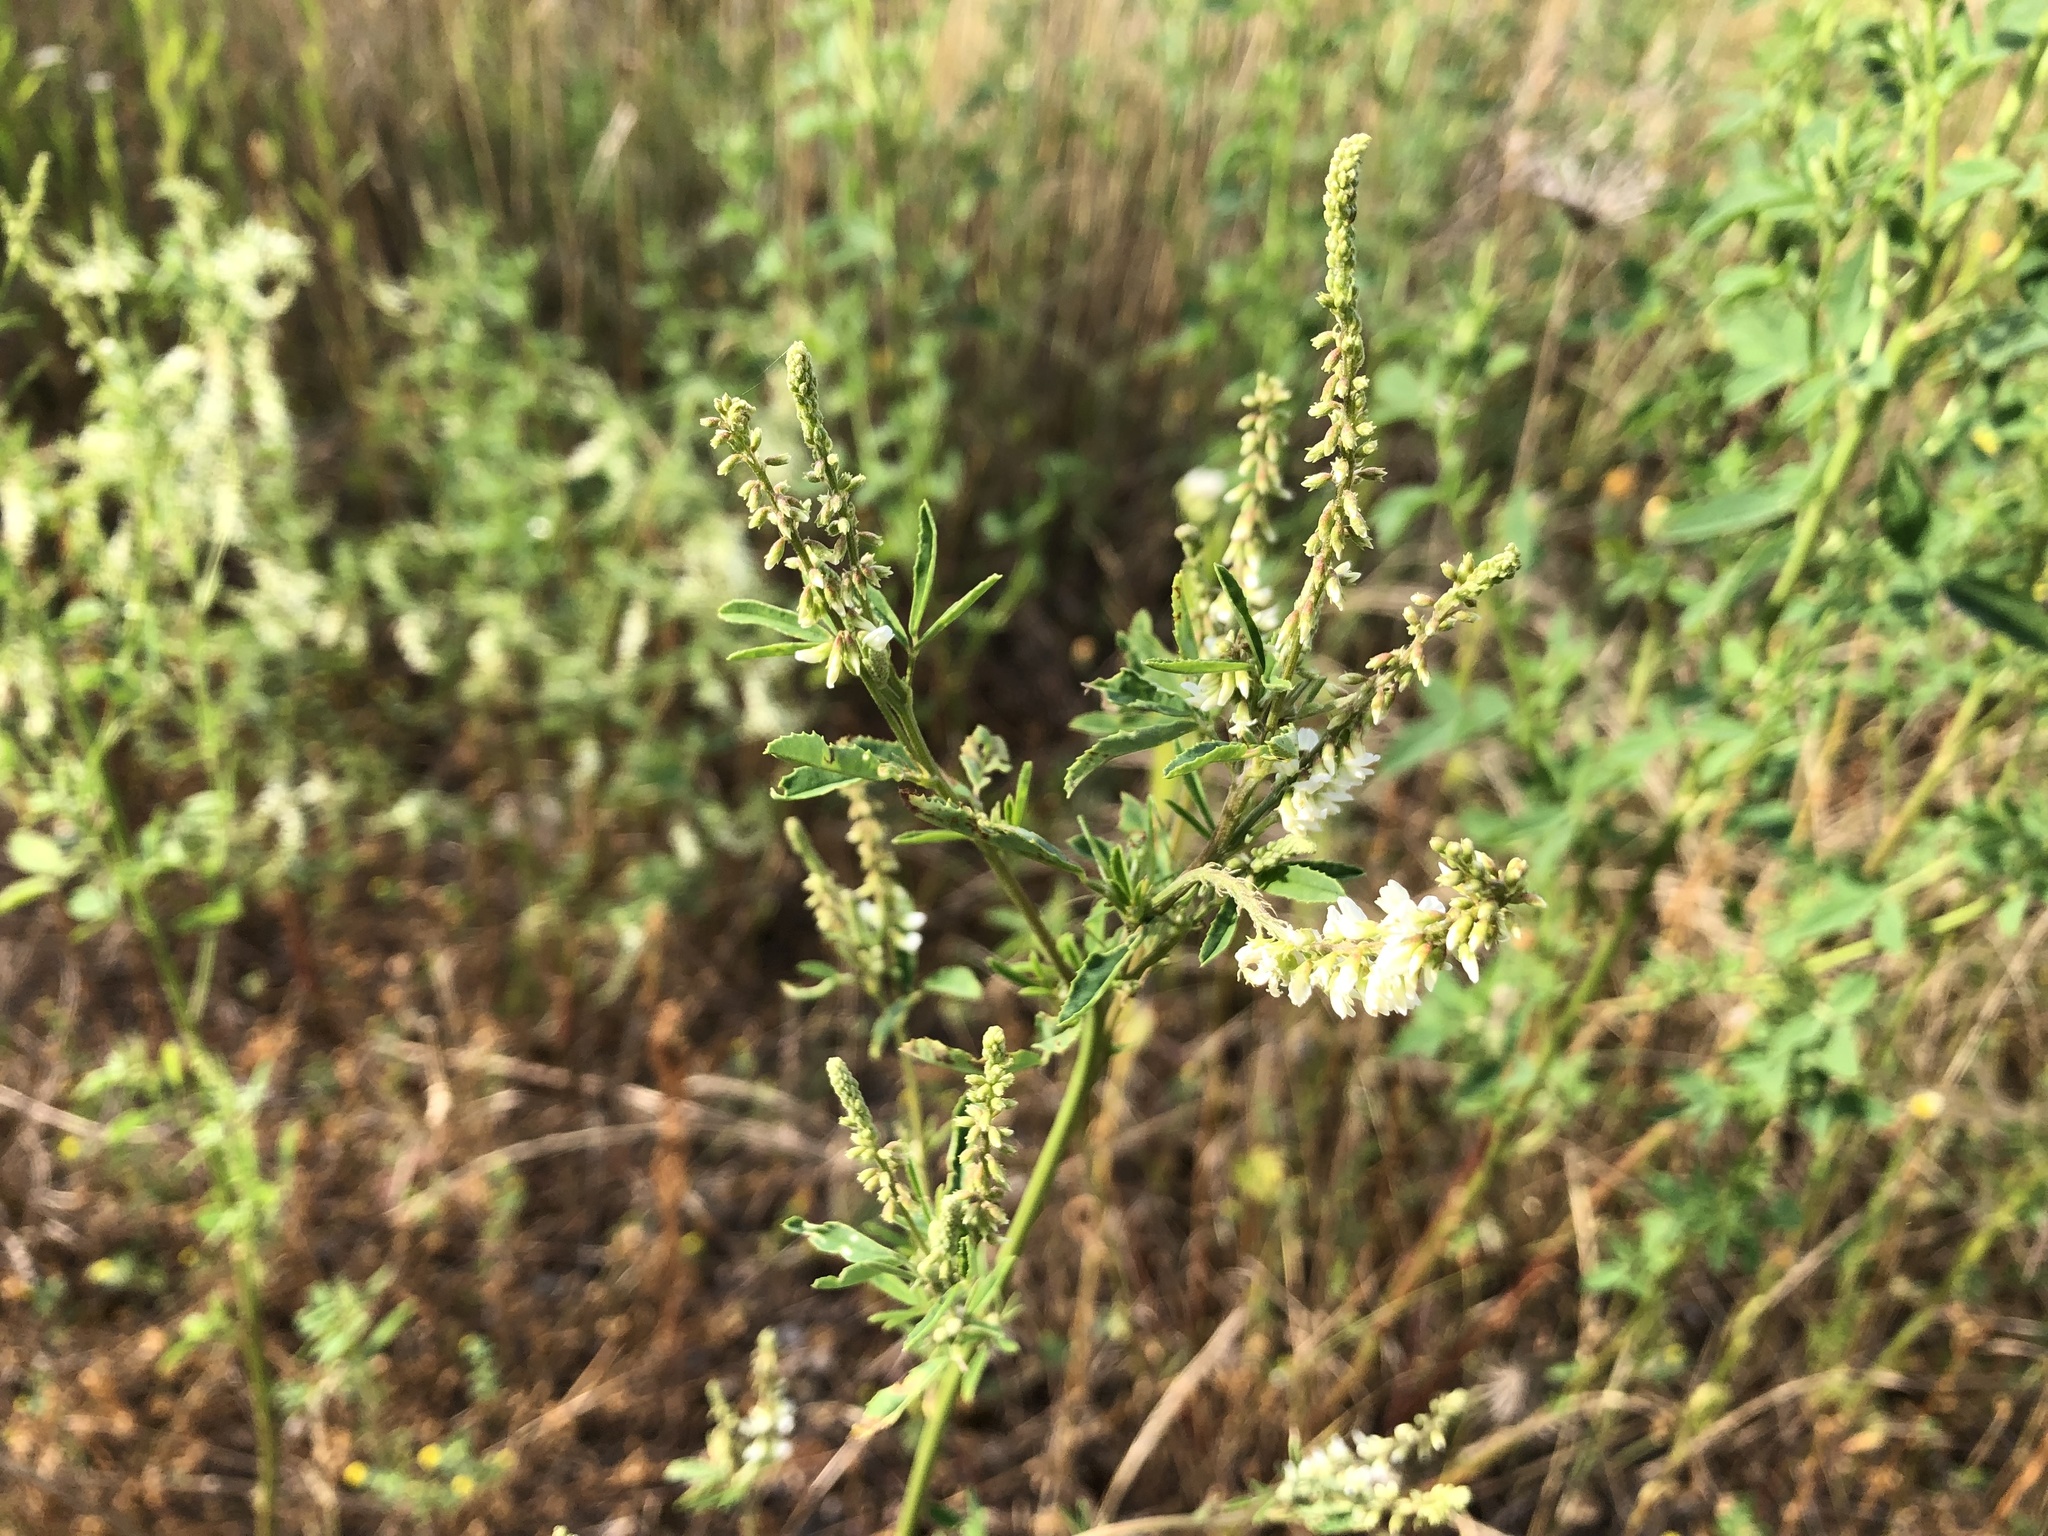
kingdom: Plantae
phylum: Tracheophyta
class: Magnoliopsida
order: Fabales
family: Fabaceae
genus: Melilotus
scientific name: Melilotus albus
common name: White melilot
